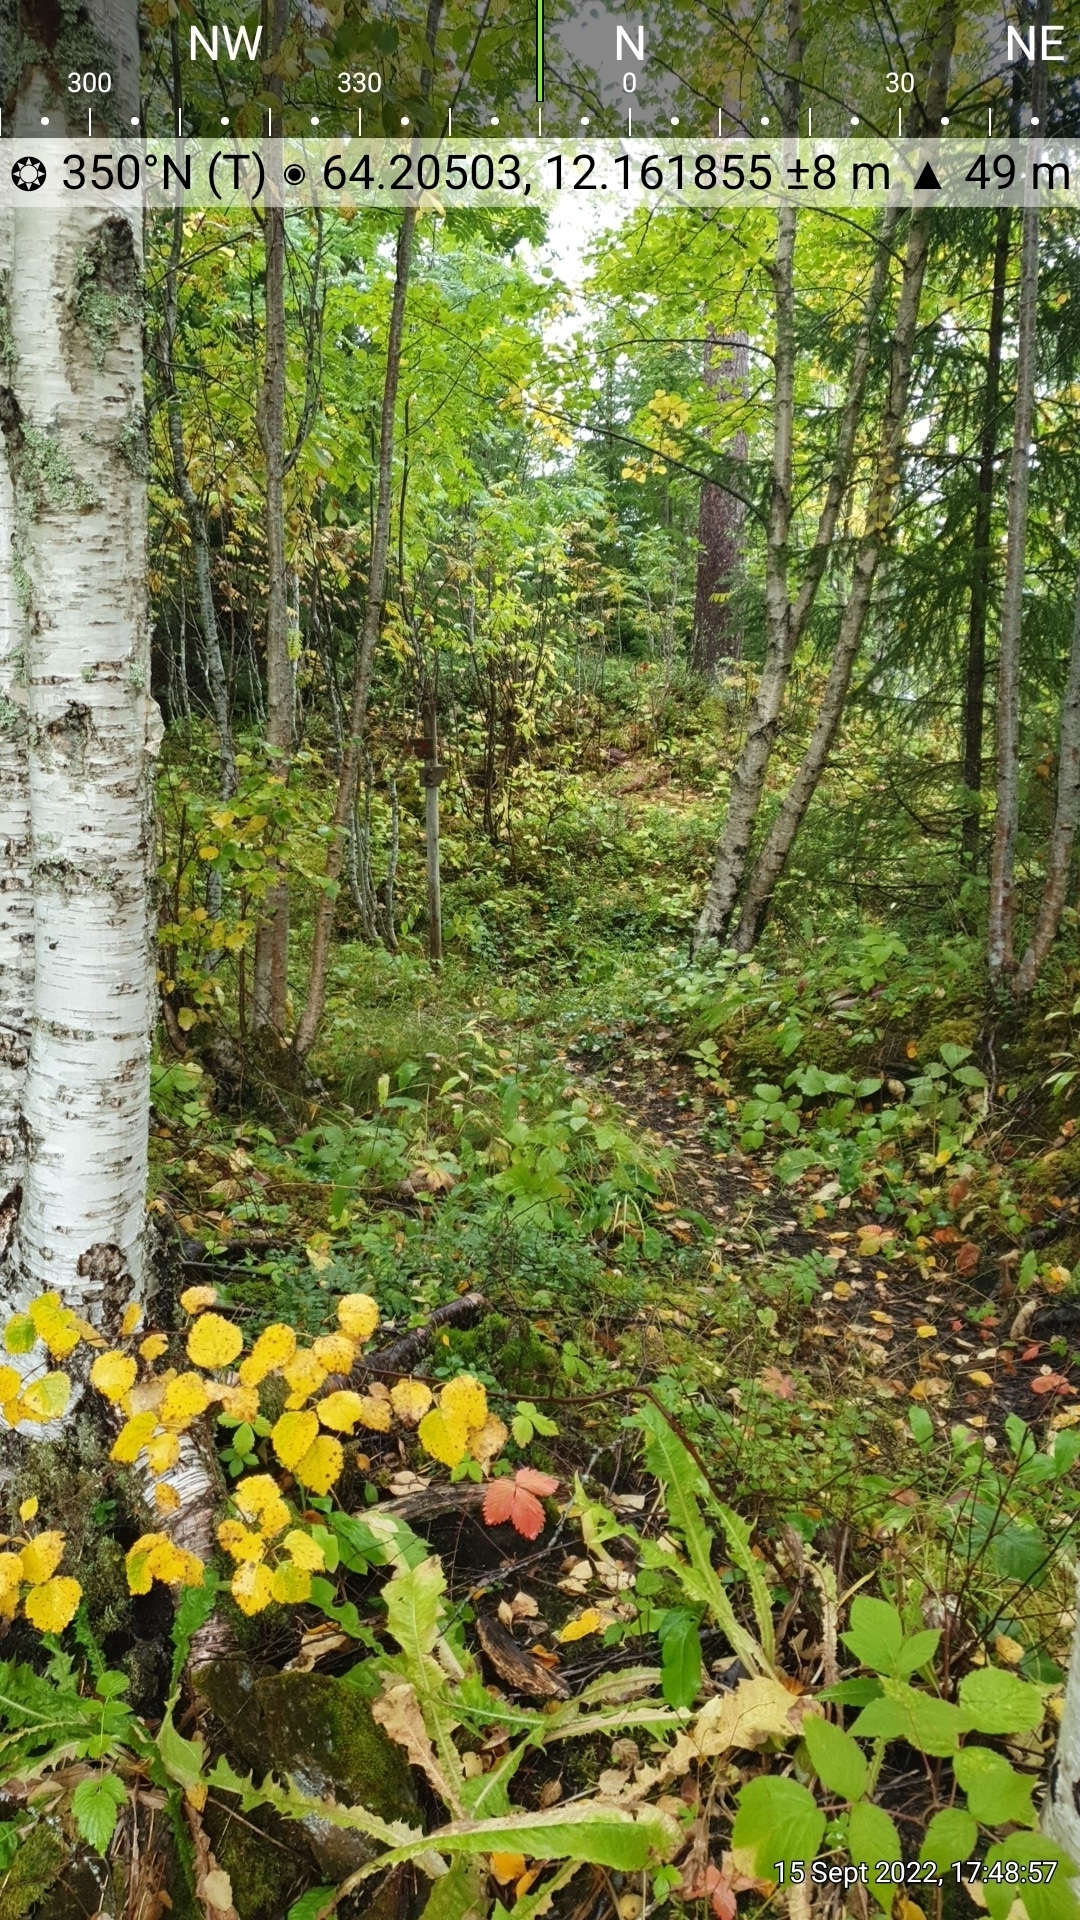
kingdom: Plantae
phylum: Tracheophyta
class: Magnoliopsida
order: Ranunculales
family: Ranunculaceae
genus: Hepatica
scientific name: Hepatica nobilis
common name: Liverleaf
